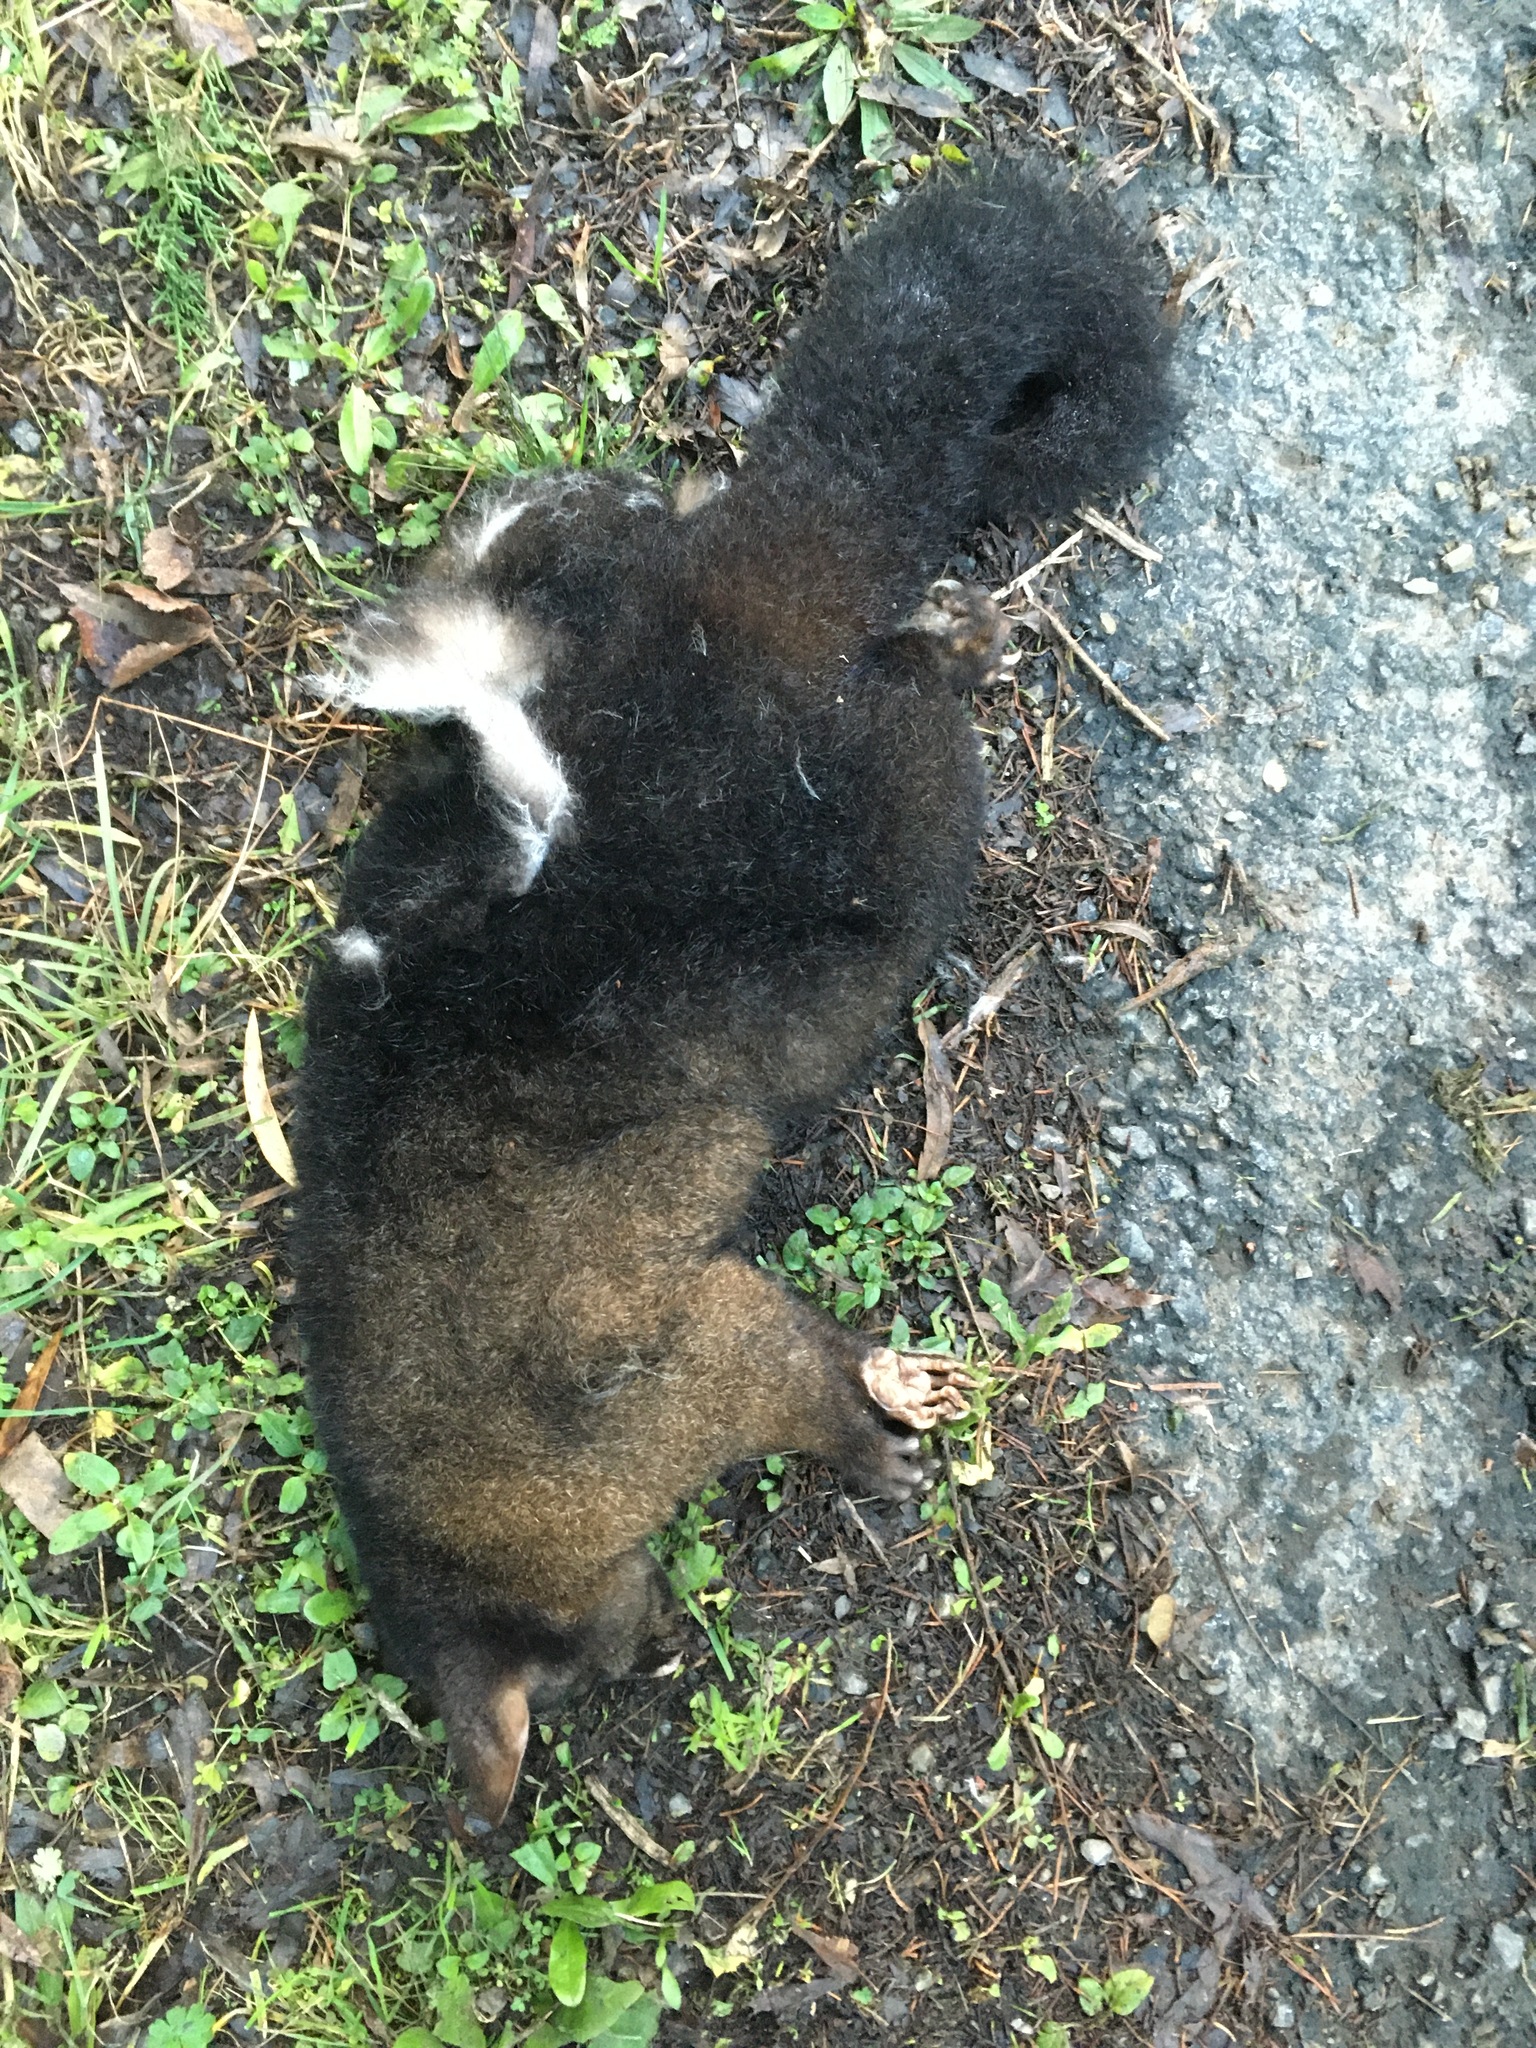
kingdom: Animalia
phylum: Chordata
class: Mammalia
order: Diprotodontia
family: Phalangeridae
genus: Trichosurus
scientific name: Trichosurus vulpecula
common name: Common brushtail
